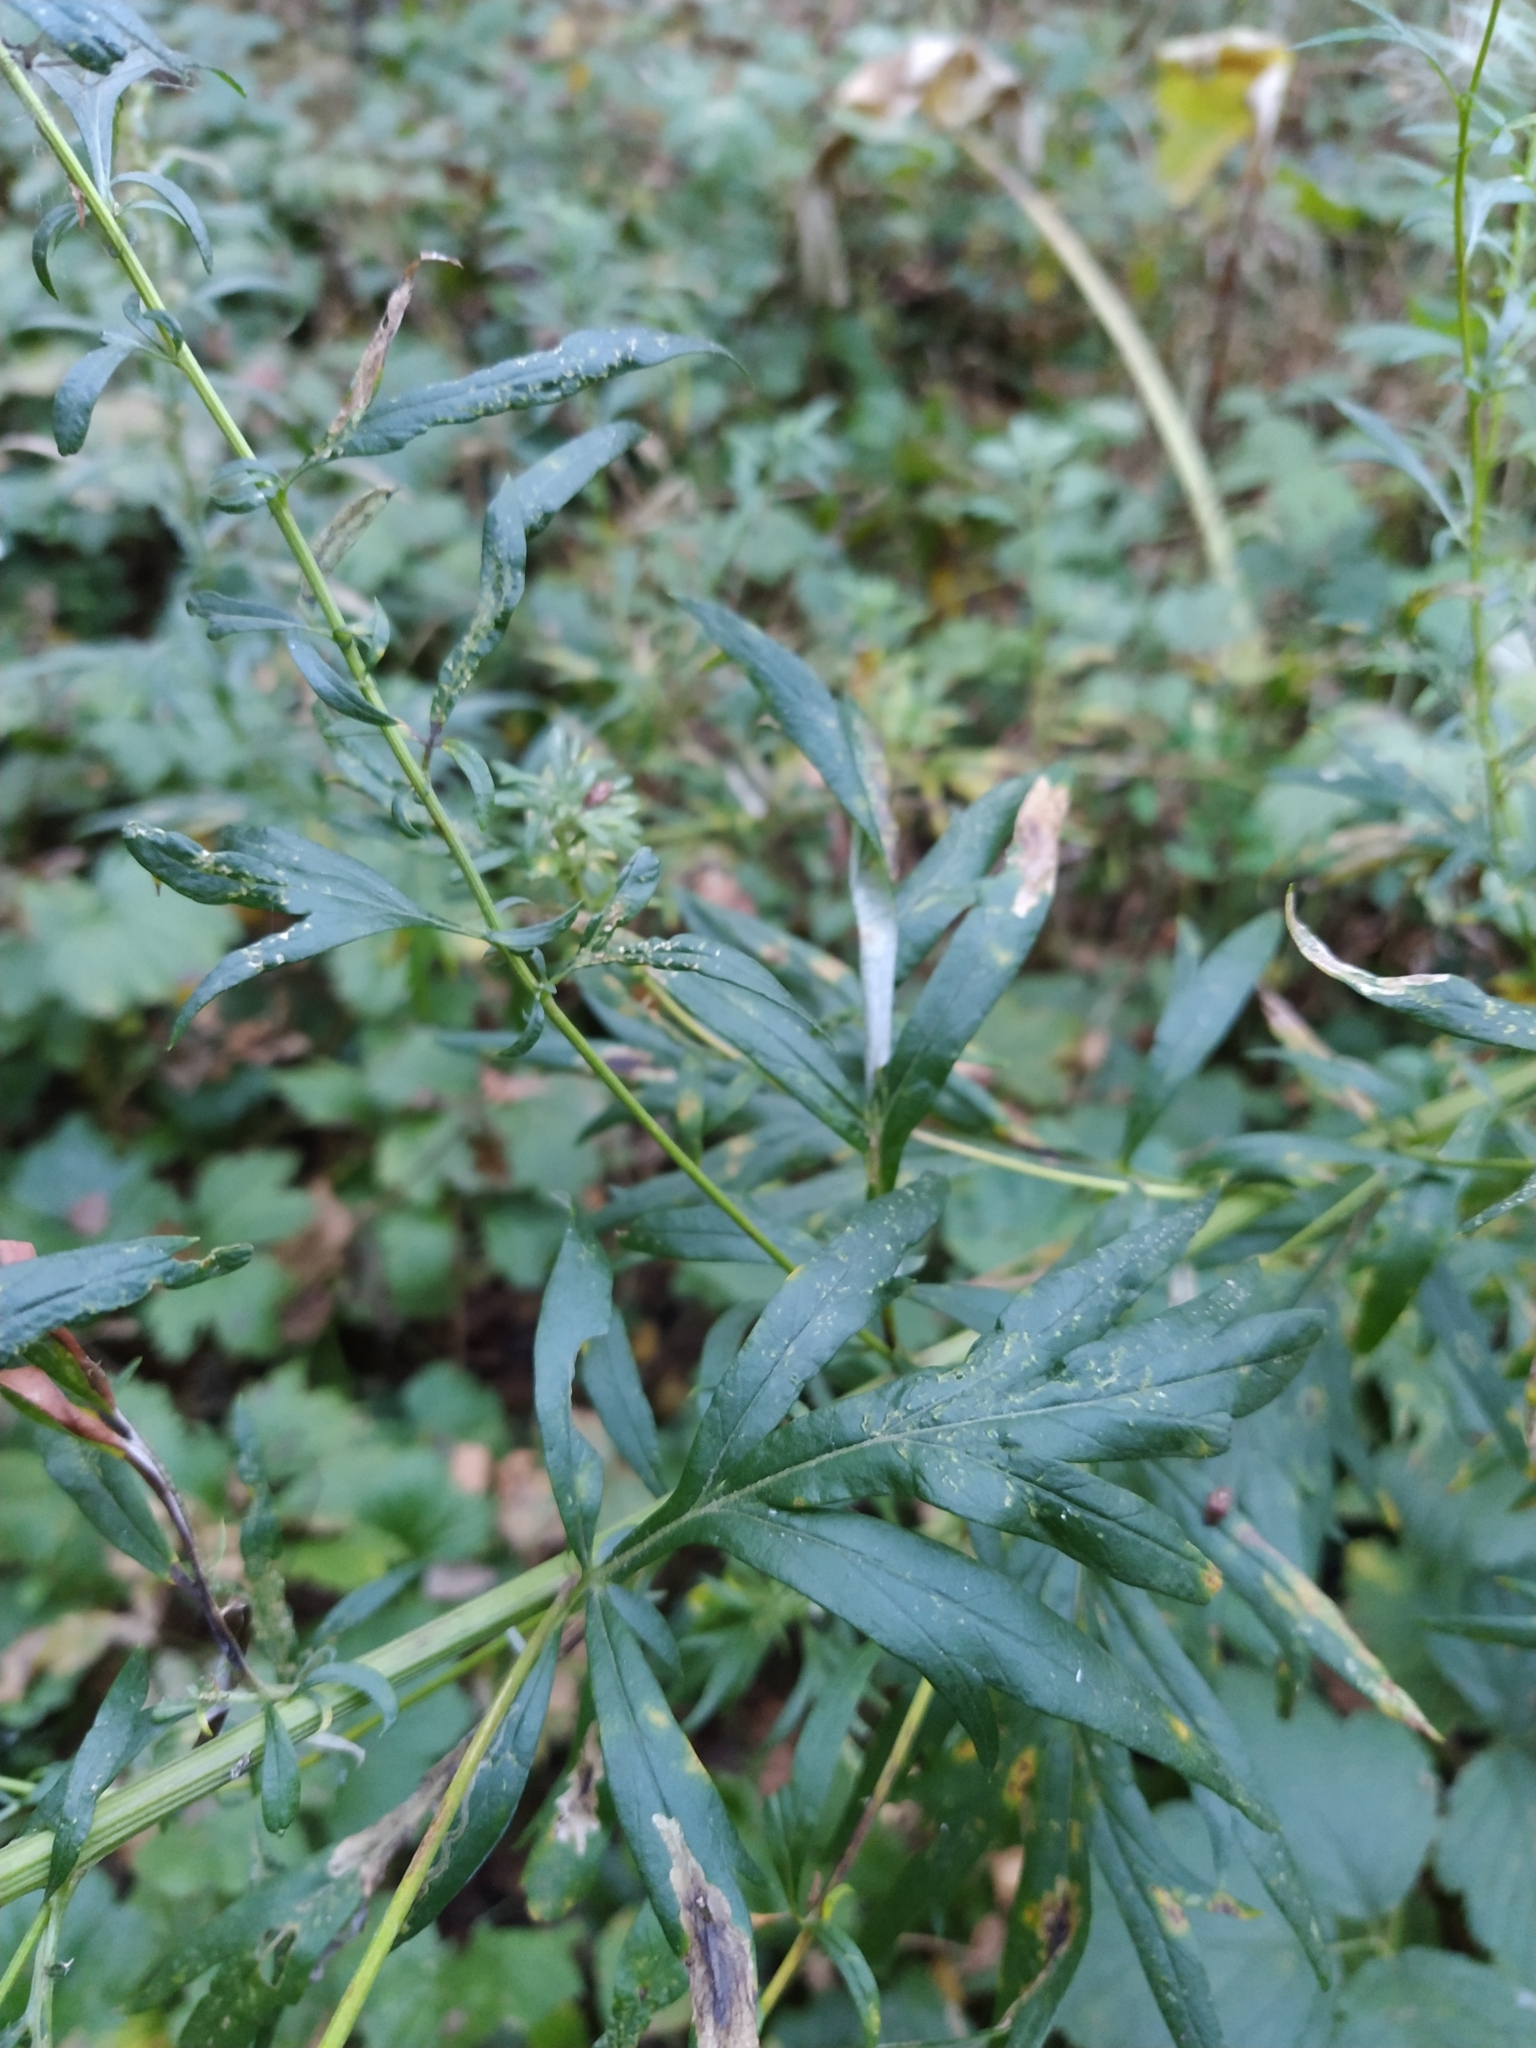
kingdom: Plantae
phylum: Tracheophyta
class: Magnoliopsida
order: Asterales
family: Asteraceae
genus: Artemisia
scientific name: Artemisia vulgaris
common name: Mugwort
